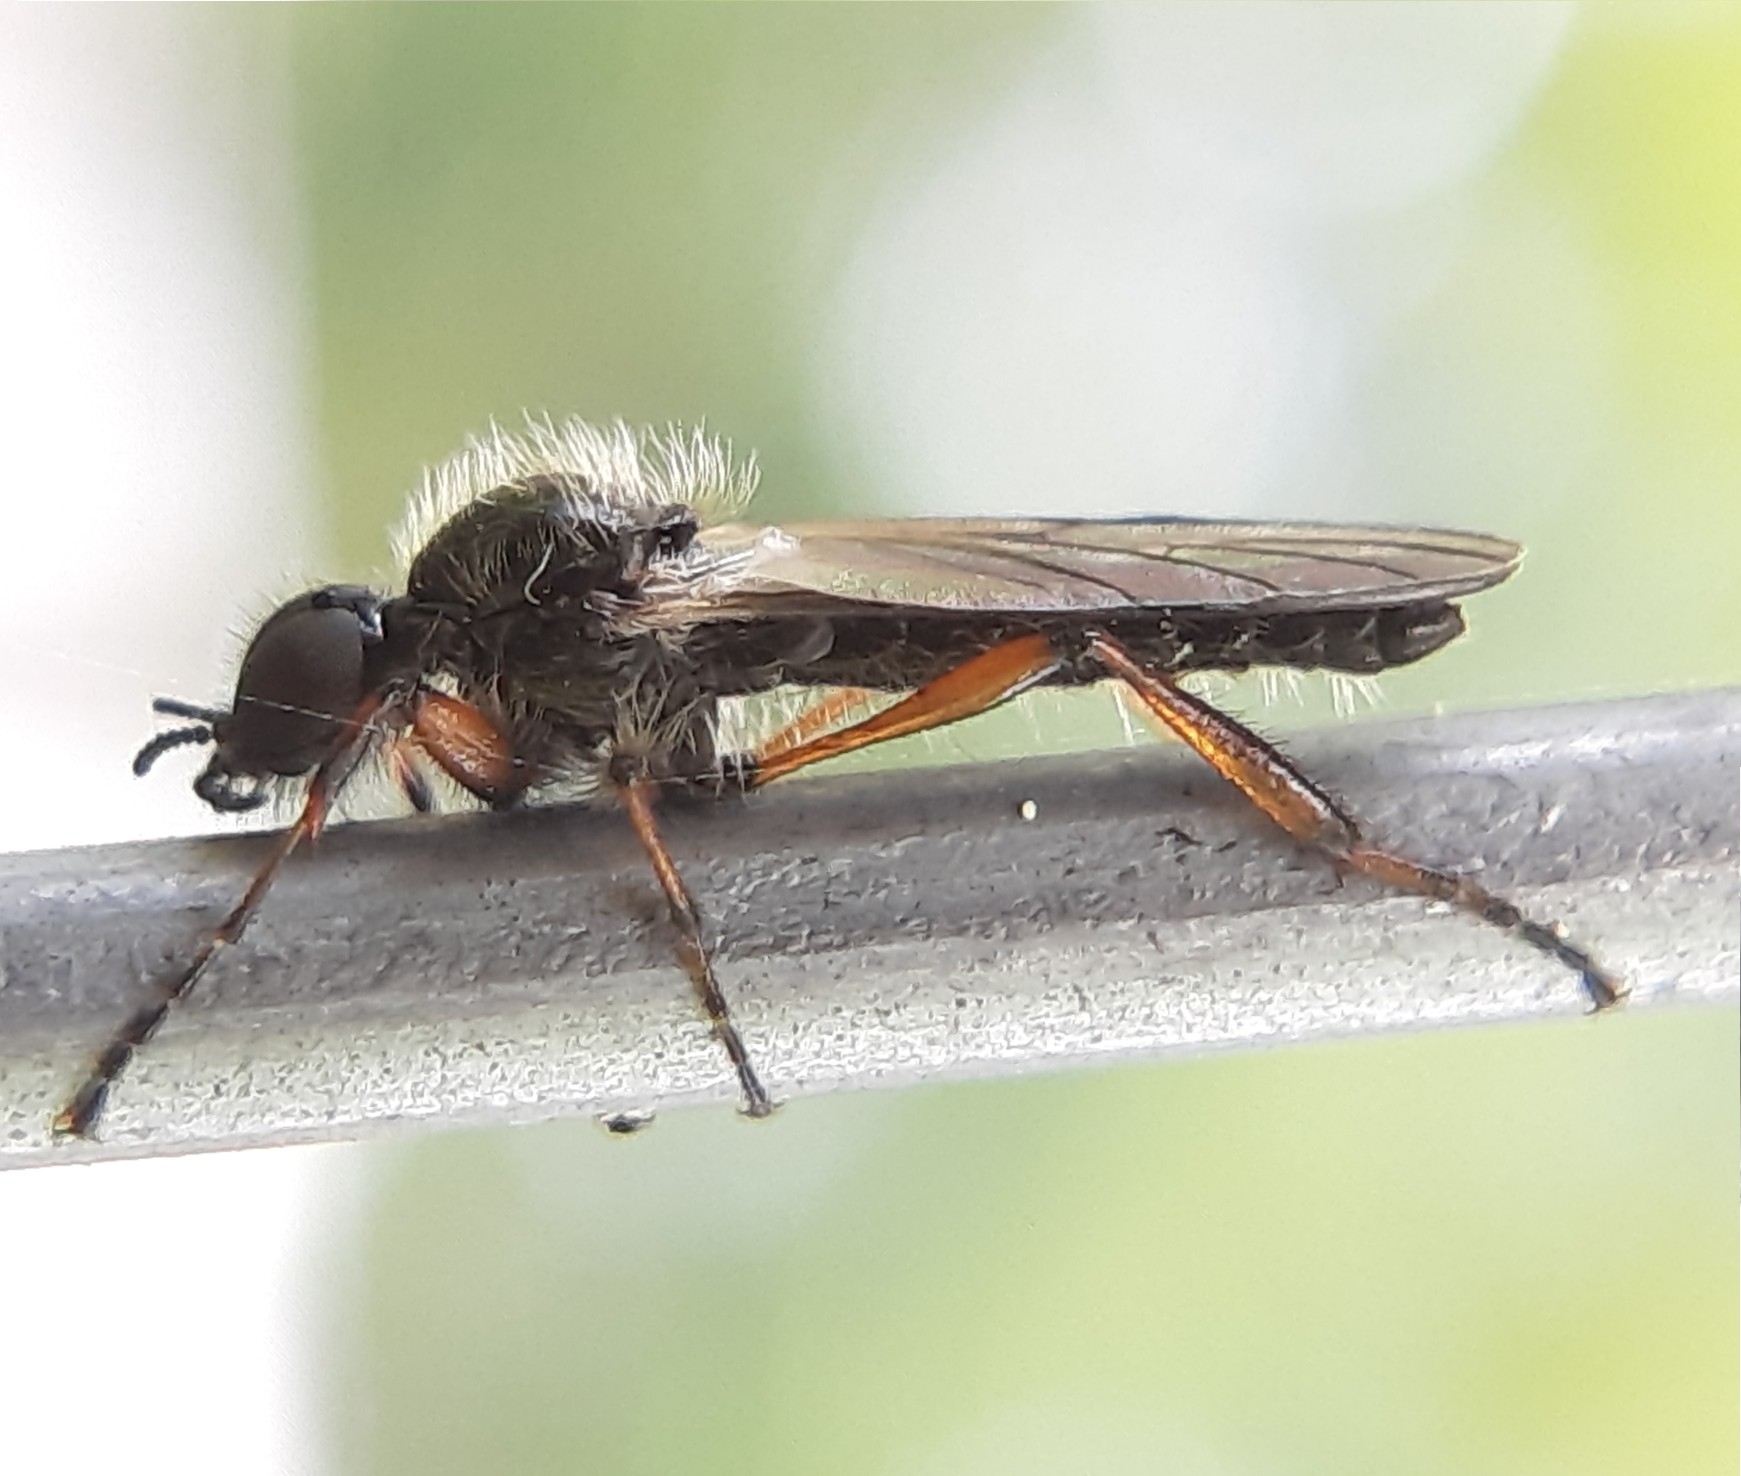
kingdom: Animalia
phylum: Arthropoda
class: Insecta
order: Diptera
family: Bibionidae
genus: Bibio
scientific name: Bibio xanthopus
